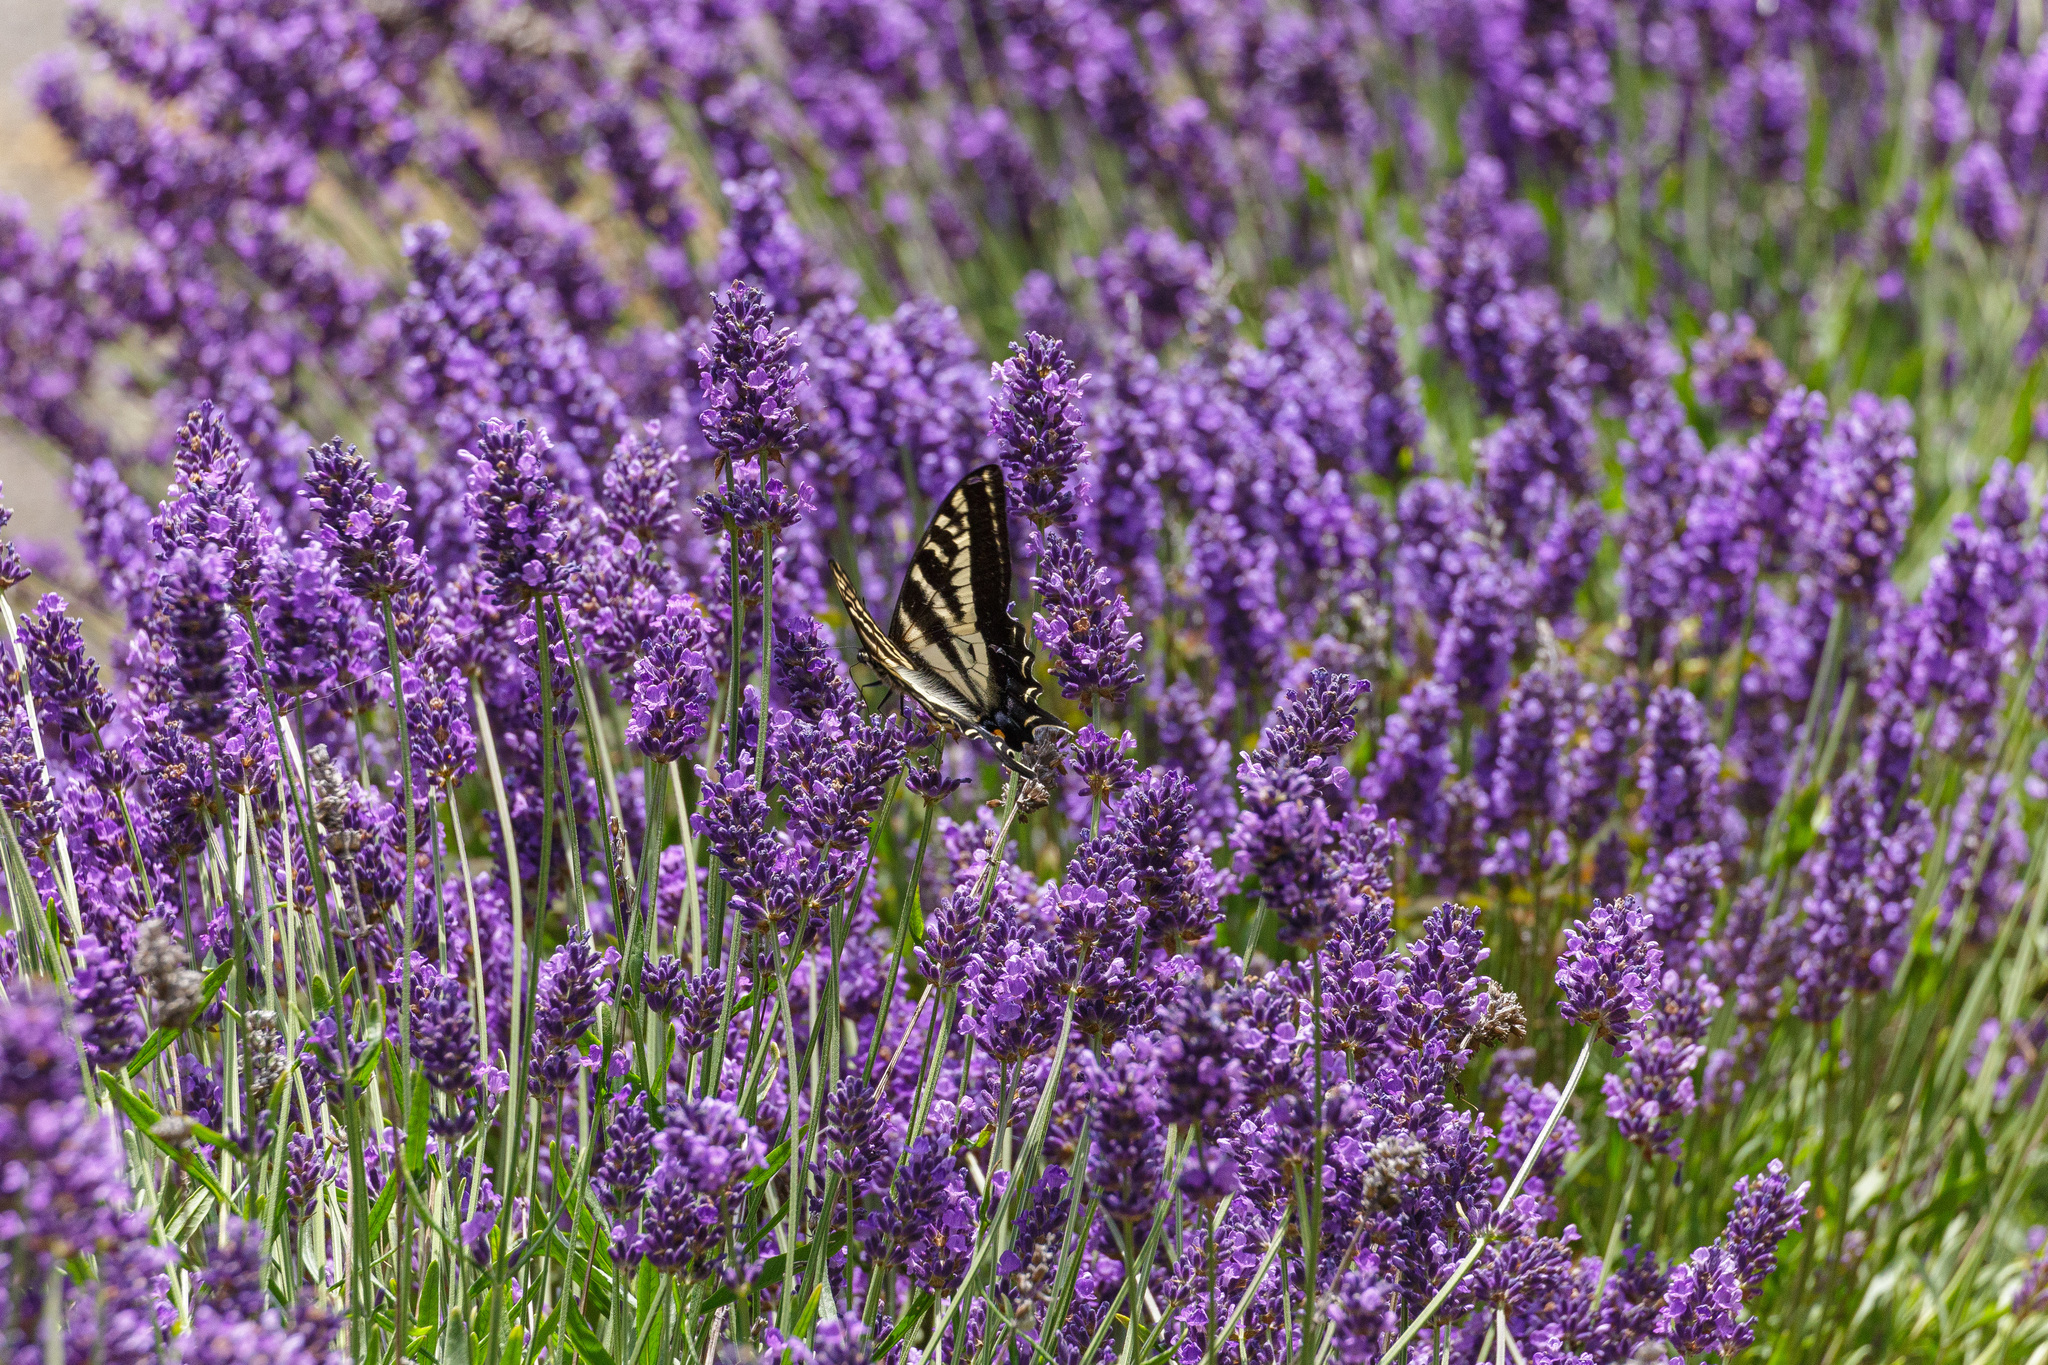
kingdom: Animalia
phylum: Arthropoda
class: Insecta
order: Lepidoptera
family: Papilionidae
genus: Papilio
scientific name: Papilio eurymedon
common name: Pale tiger swallowtail
